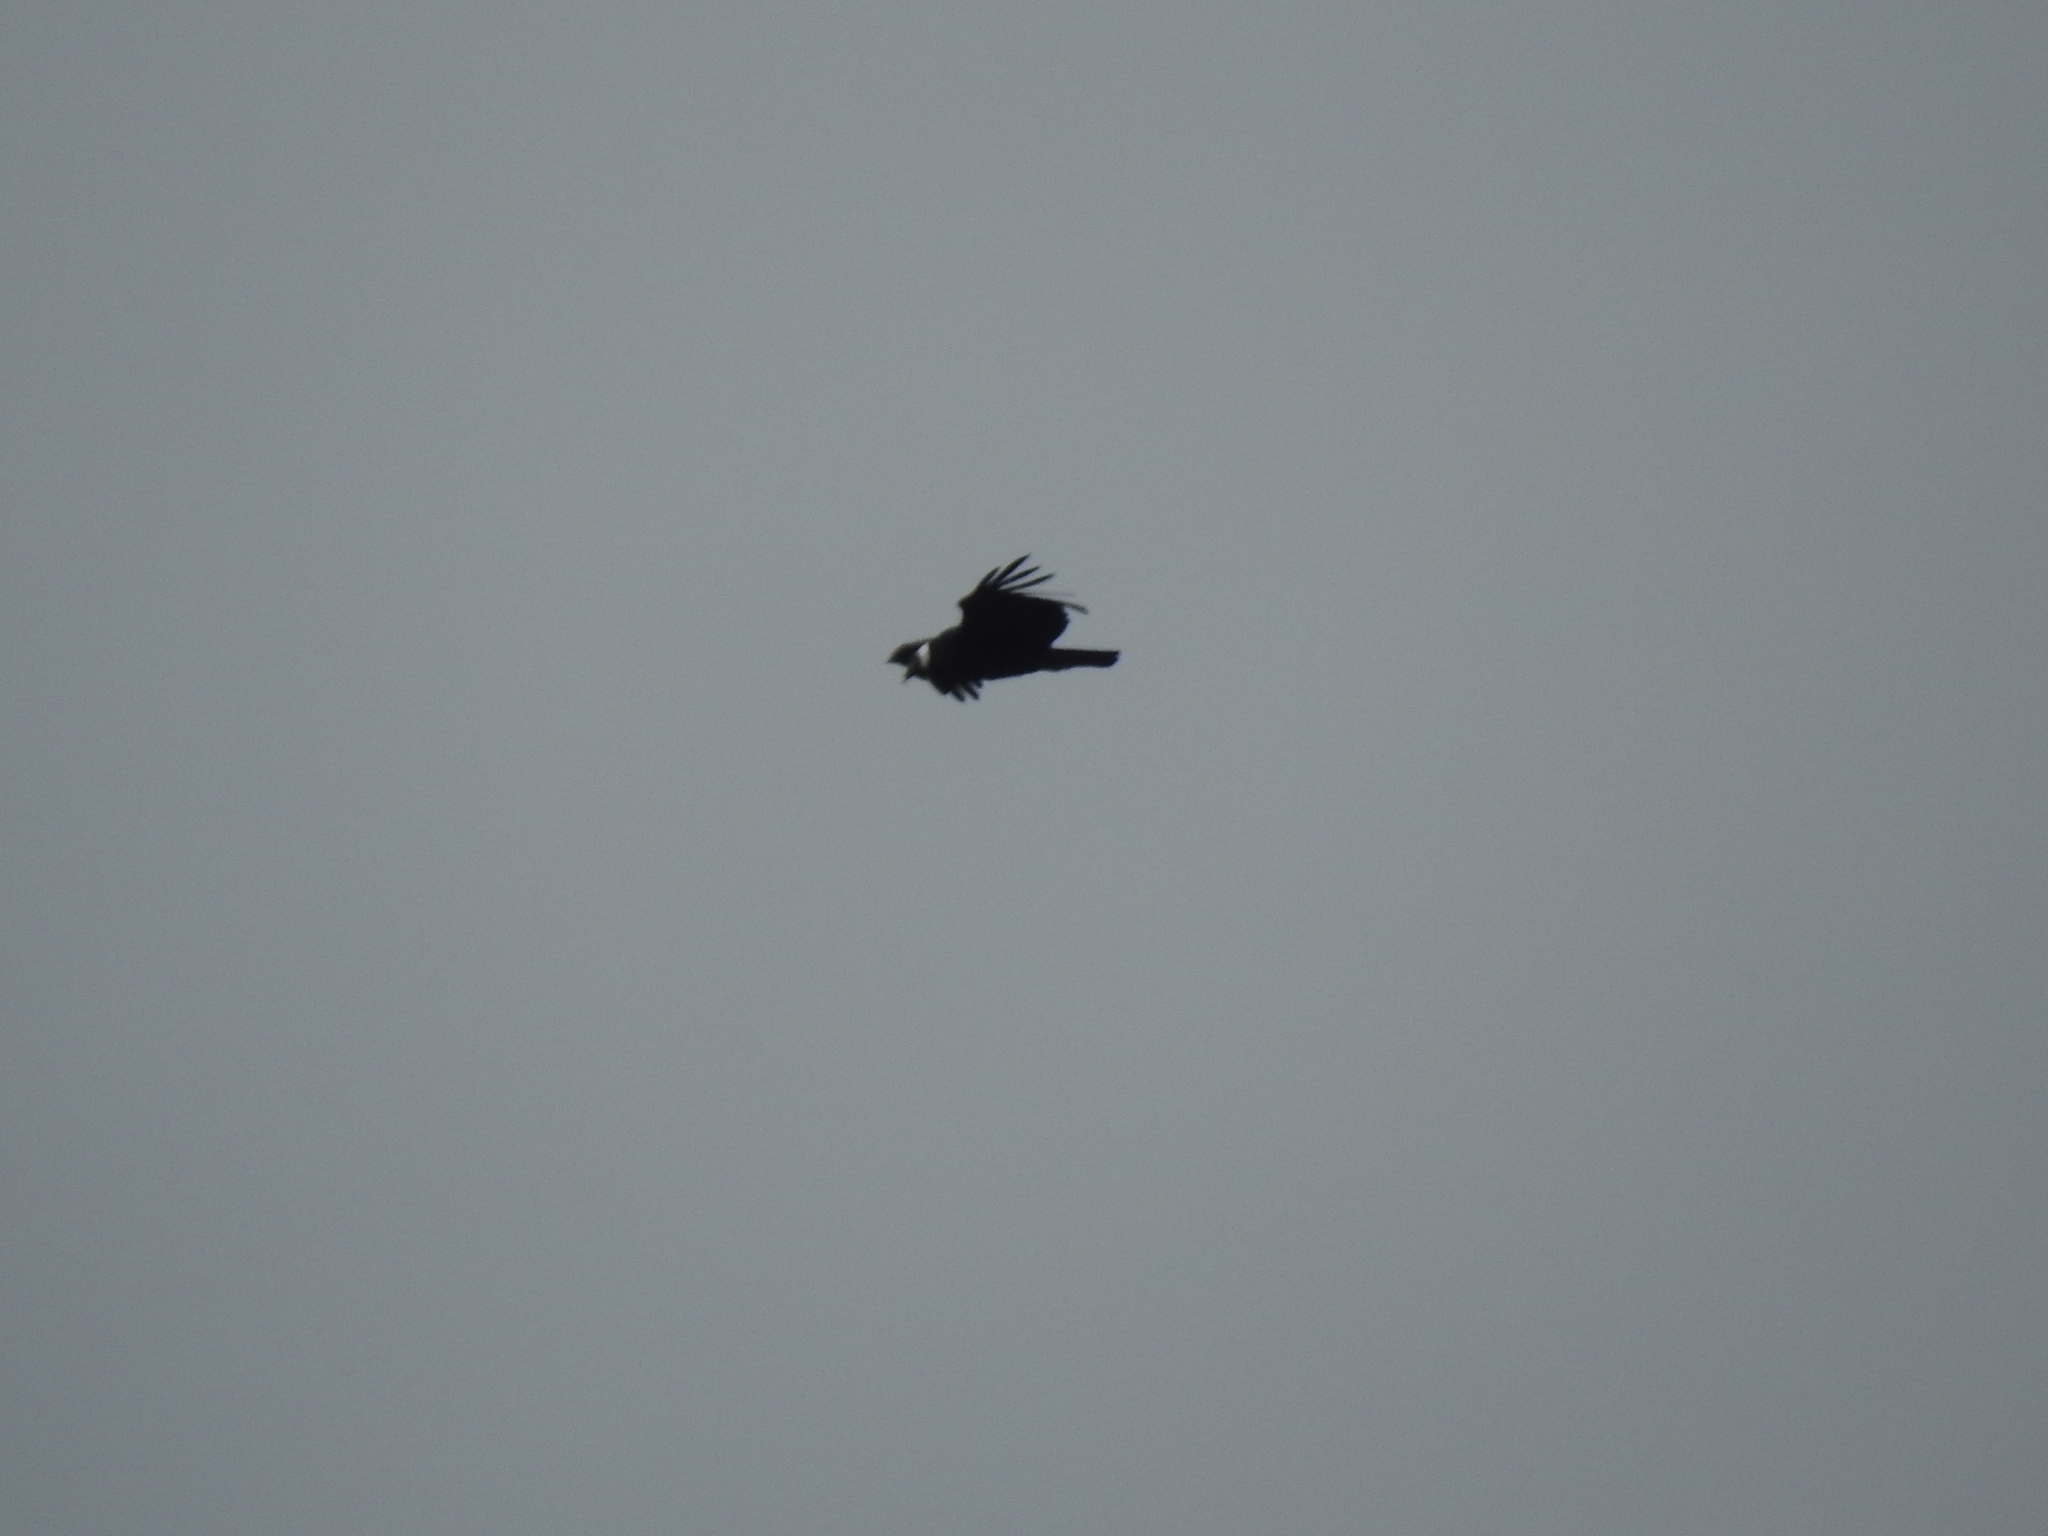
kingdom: Animalia
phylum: Chordata
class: Aves
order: Accipitriformes
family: Cathartidae
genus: Vultur
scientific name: Vultur gryphus
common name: Andean condor
